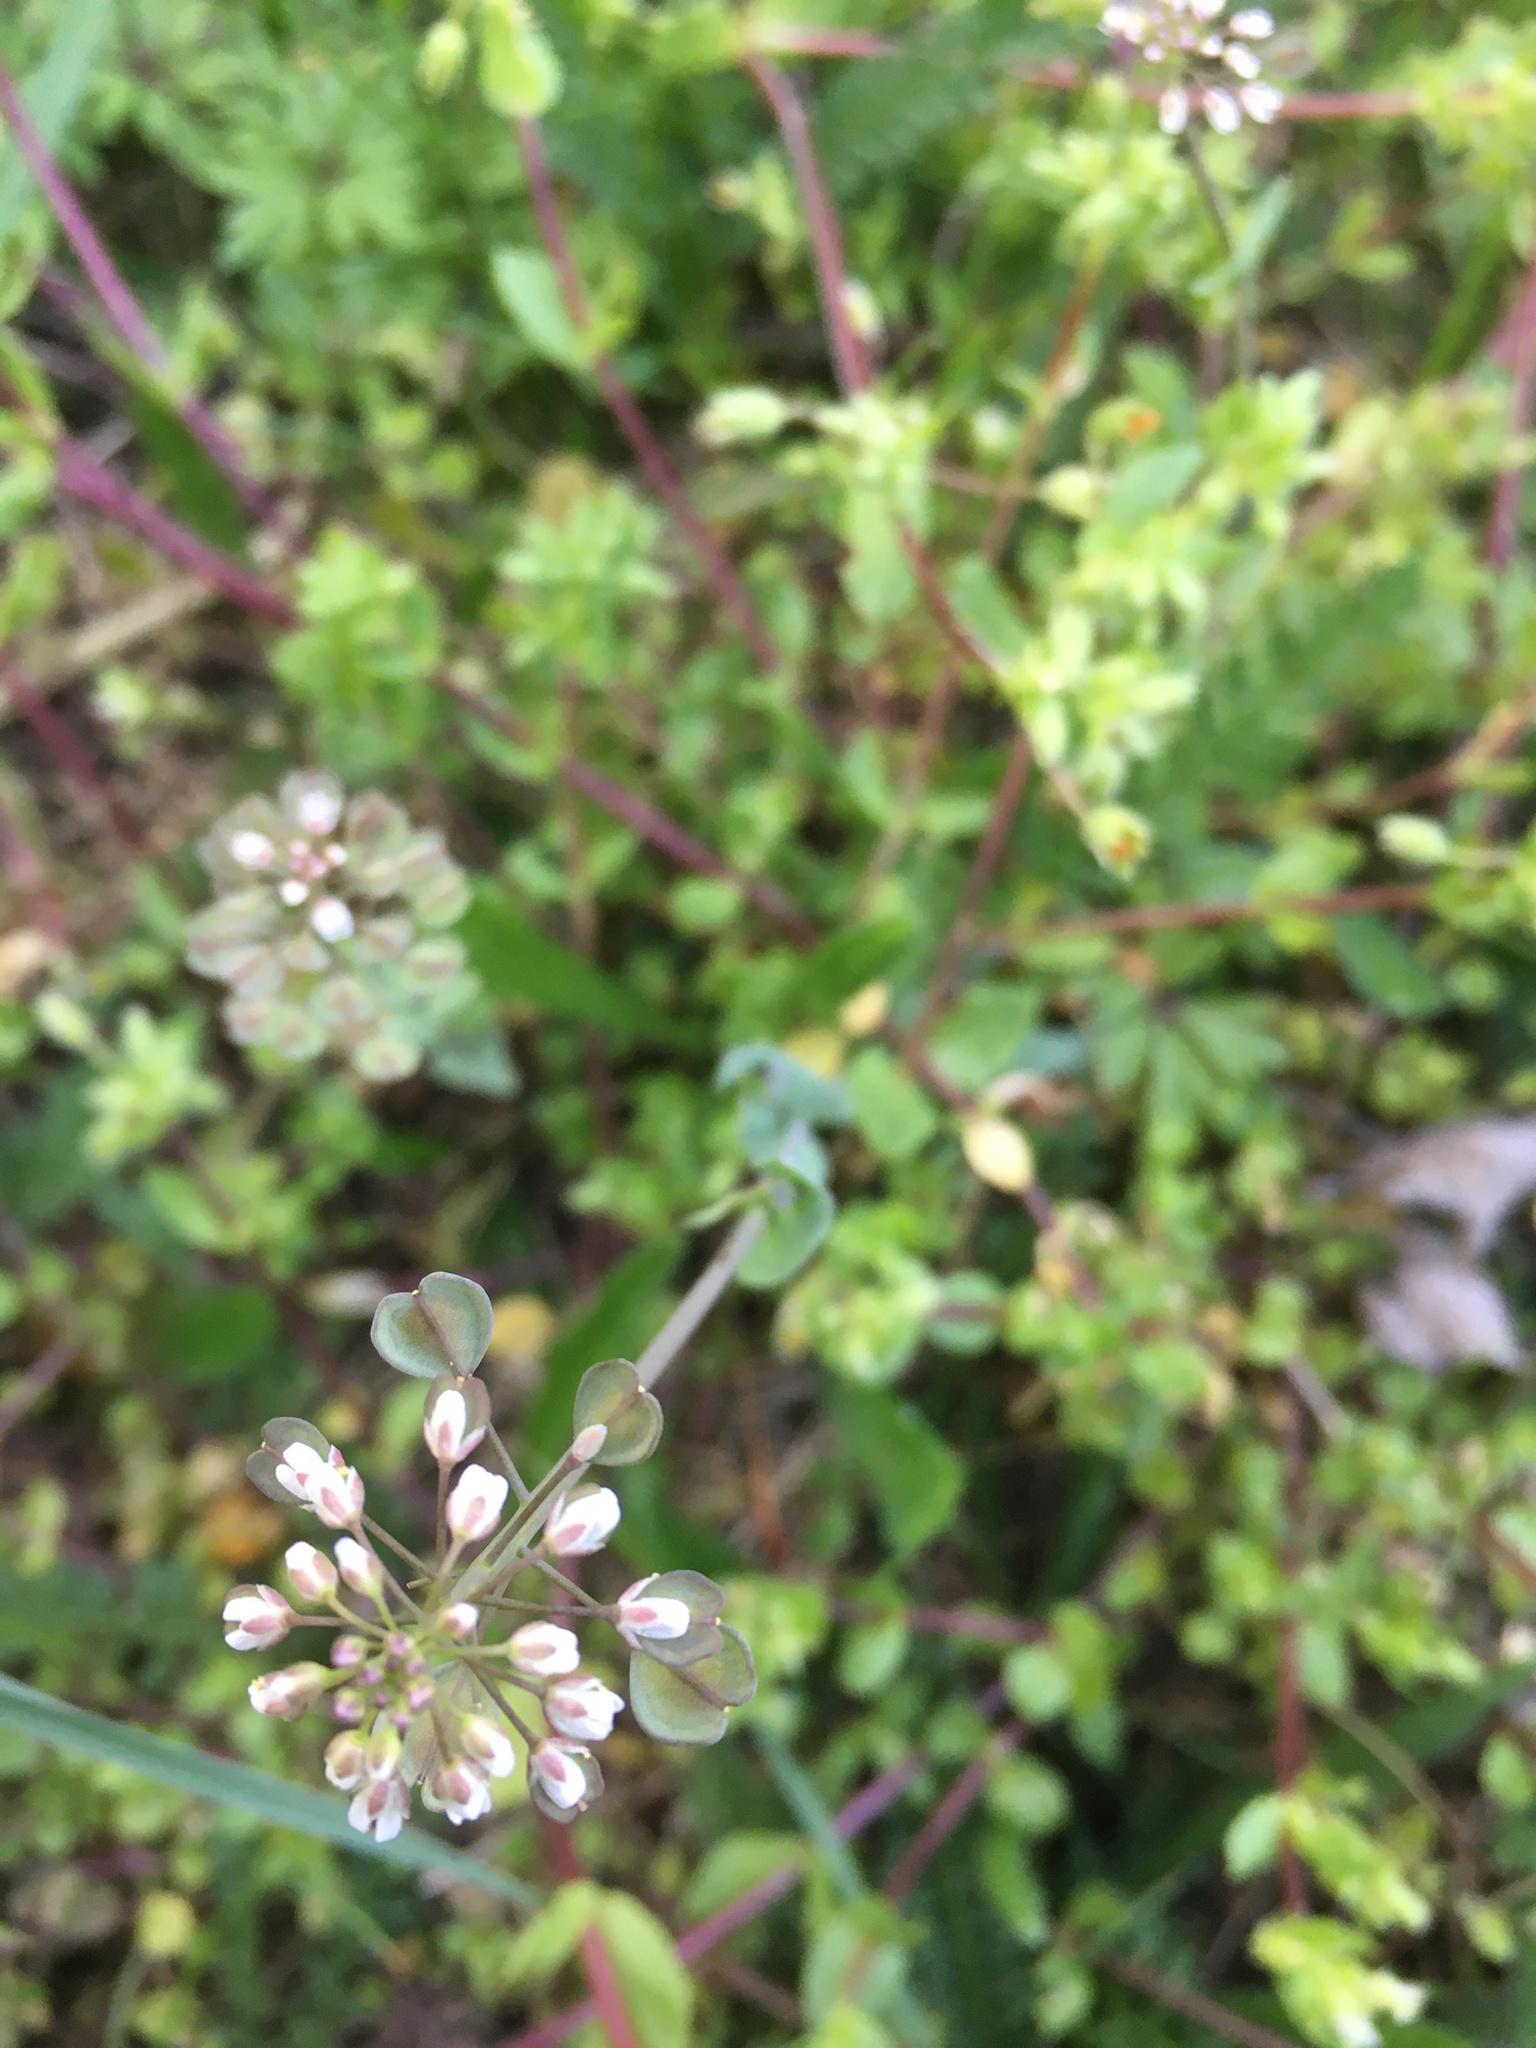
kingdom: Plantae
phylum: Tracheophyta
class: Magnoliopsida
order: Brassicales
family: Brassicaceae
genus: Noccaea
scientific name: Noccaea perfoliata
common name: Perfoliate pennycress
